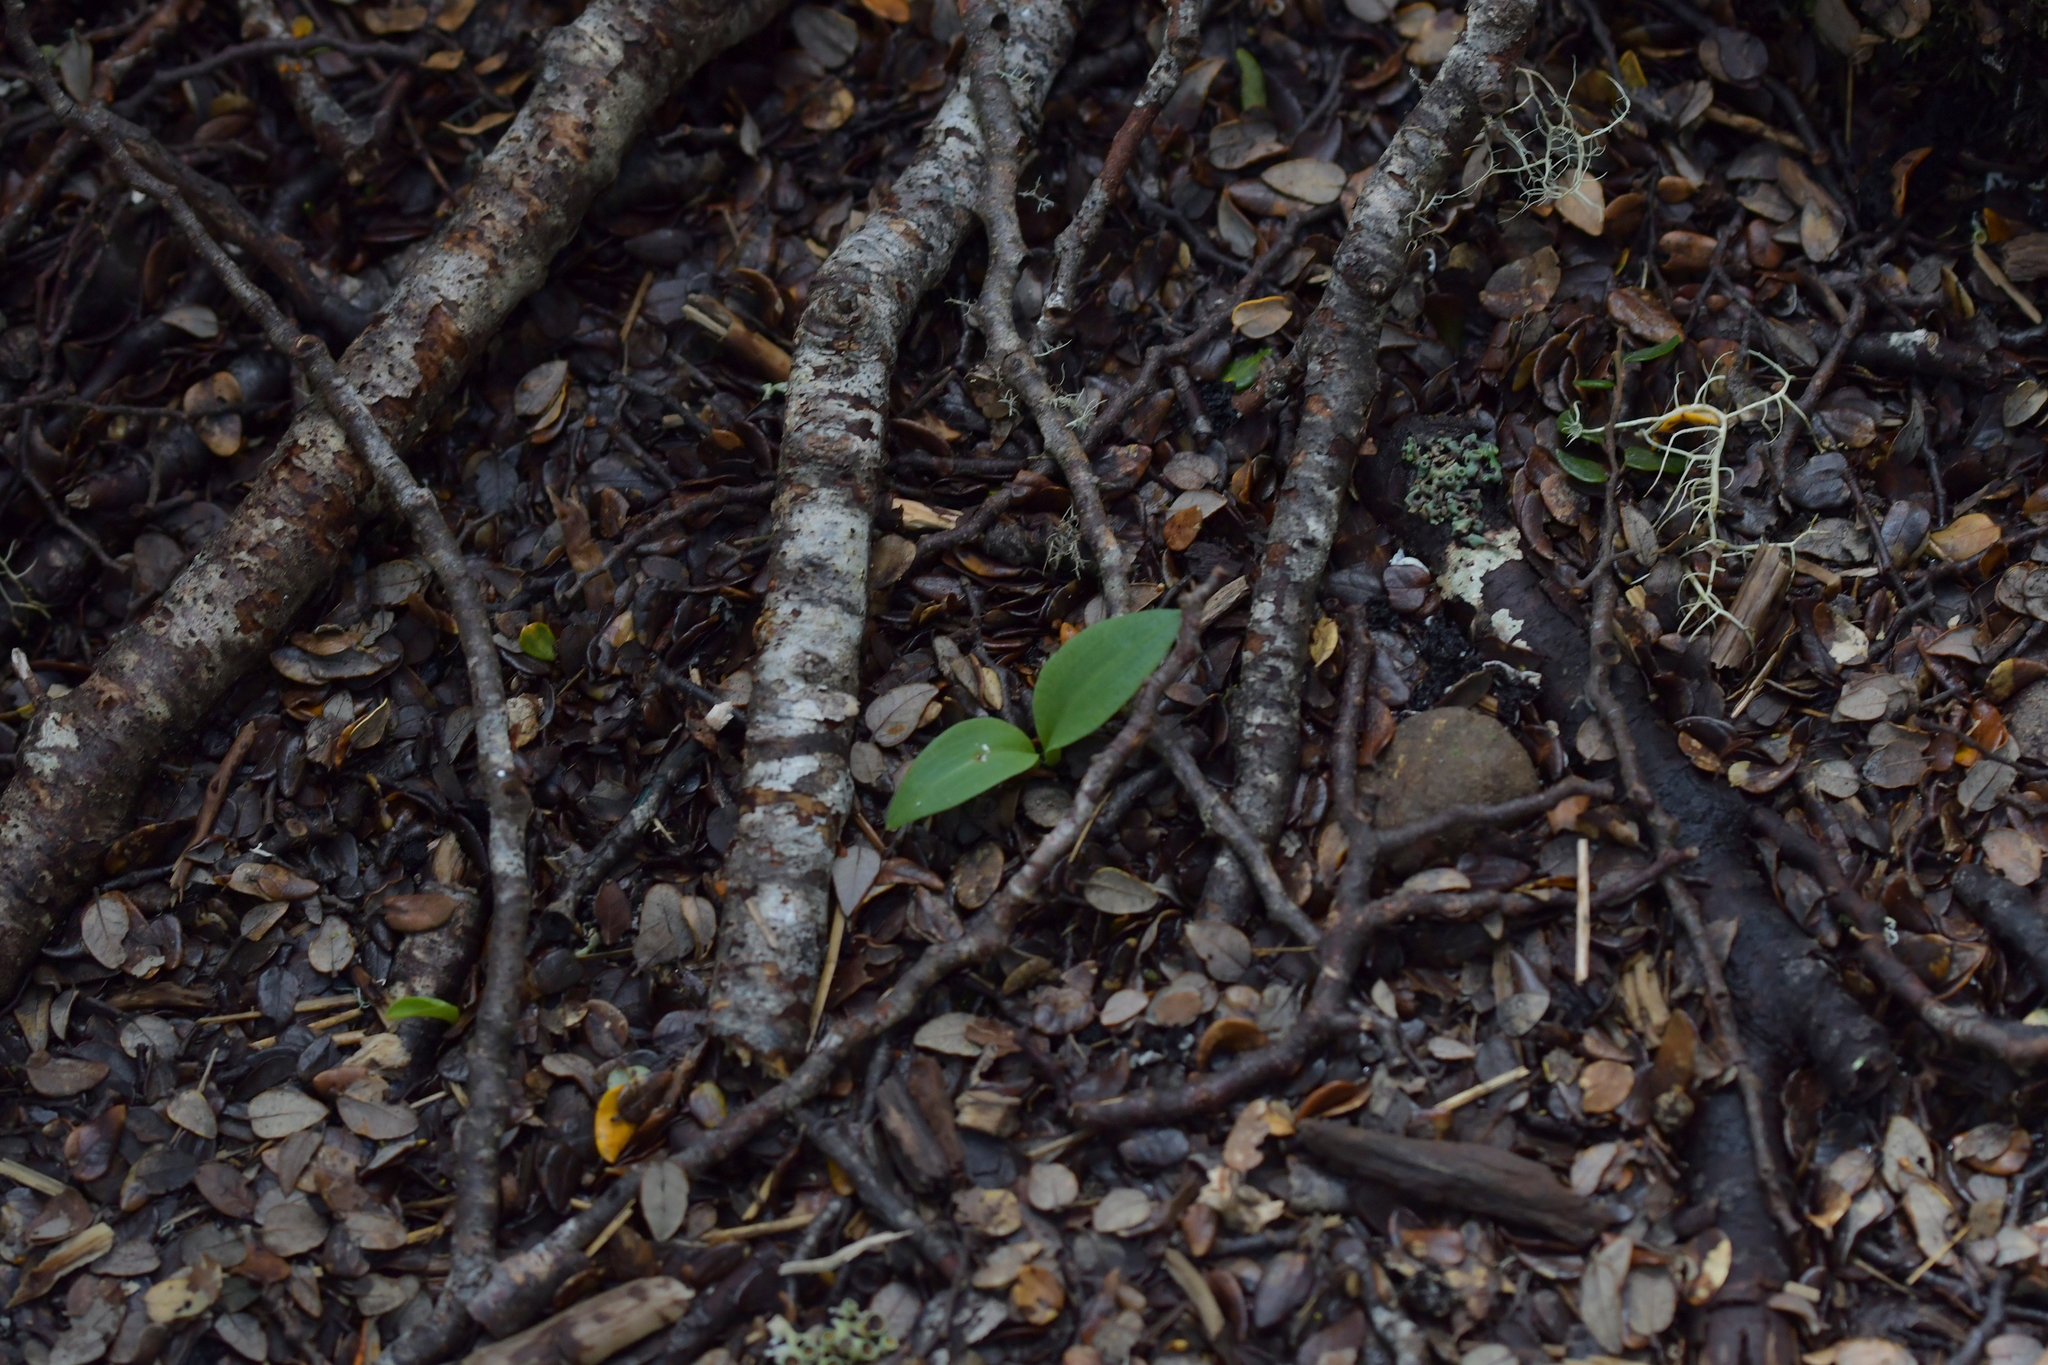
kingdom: Plantae
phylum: Tracheophyta
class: Liliopsida
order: Asparagales
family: Orchidaceae
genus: Chiloglottis
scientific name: Chiloglottis cornuta
